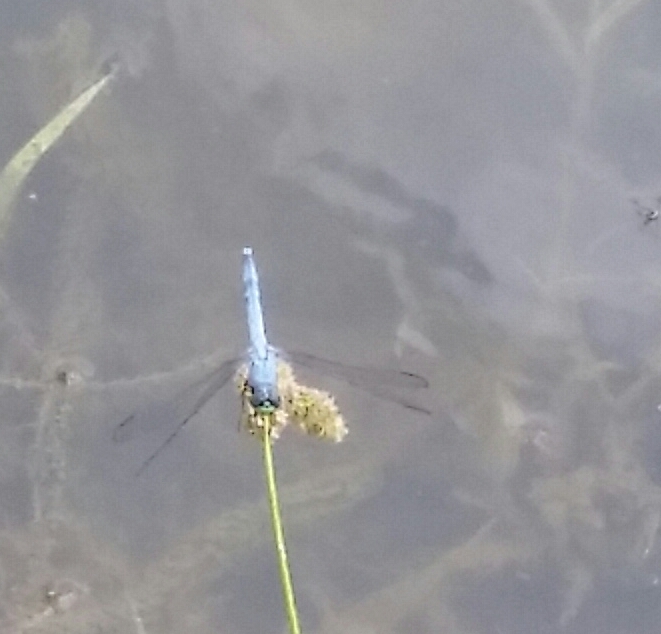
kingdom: Animalia
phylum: Arthropoda
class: Insecta
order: Odonata
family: Libellulidae
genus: Erythemis
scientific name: Erythemis simplicicollis
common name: Eastern pondhawk
